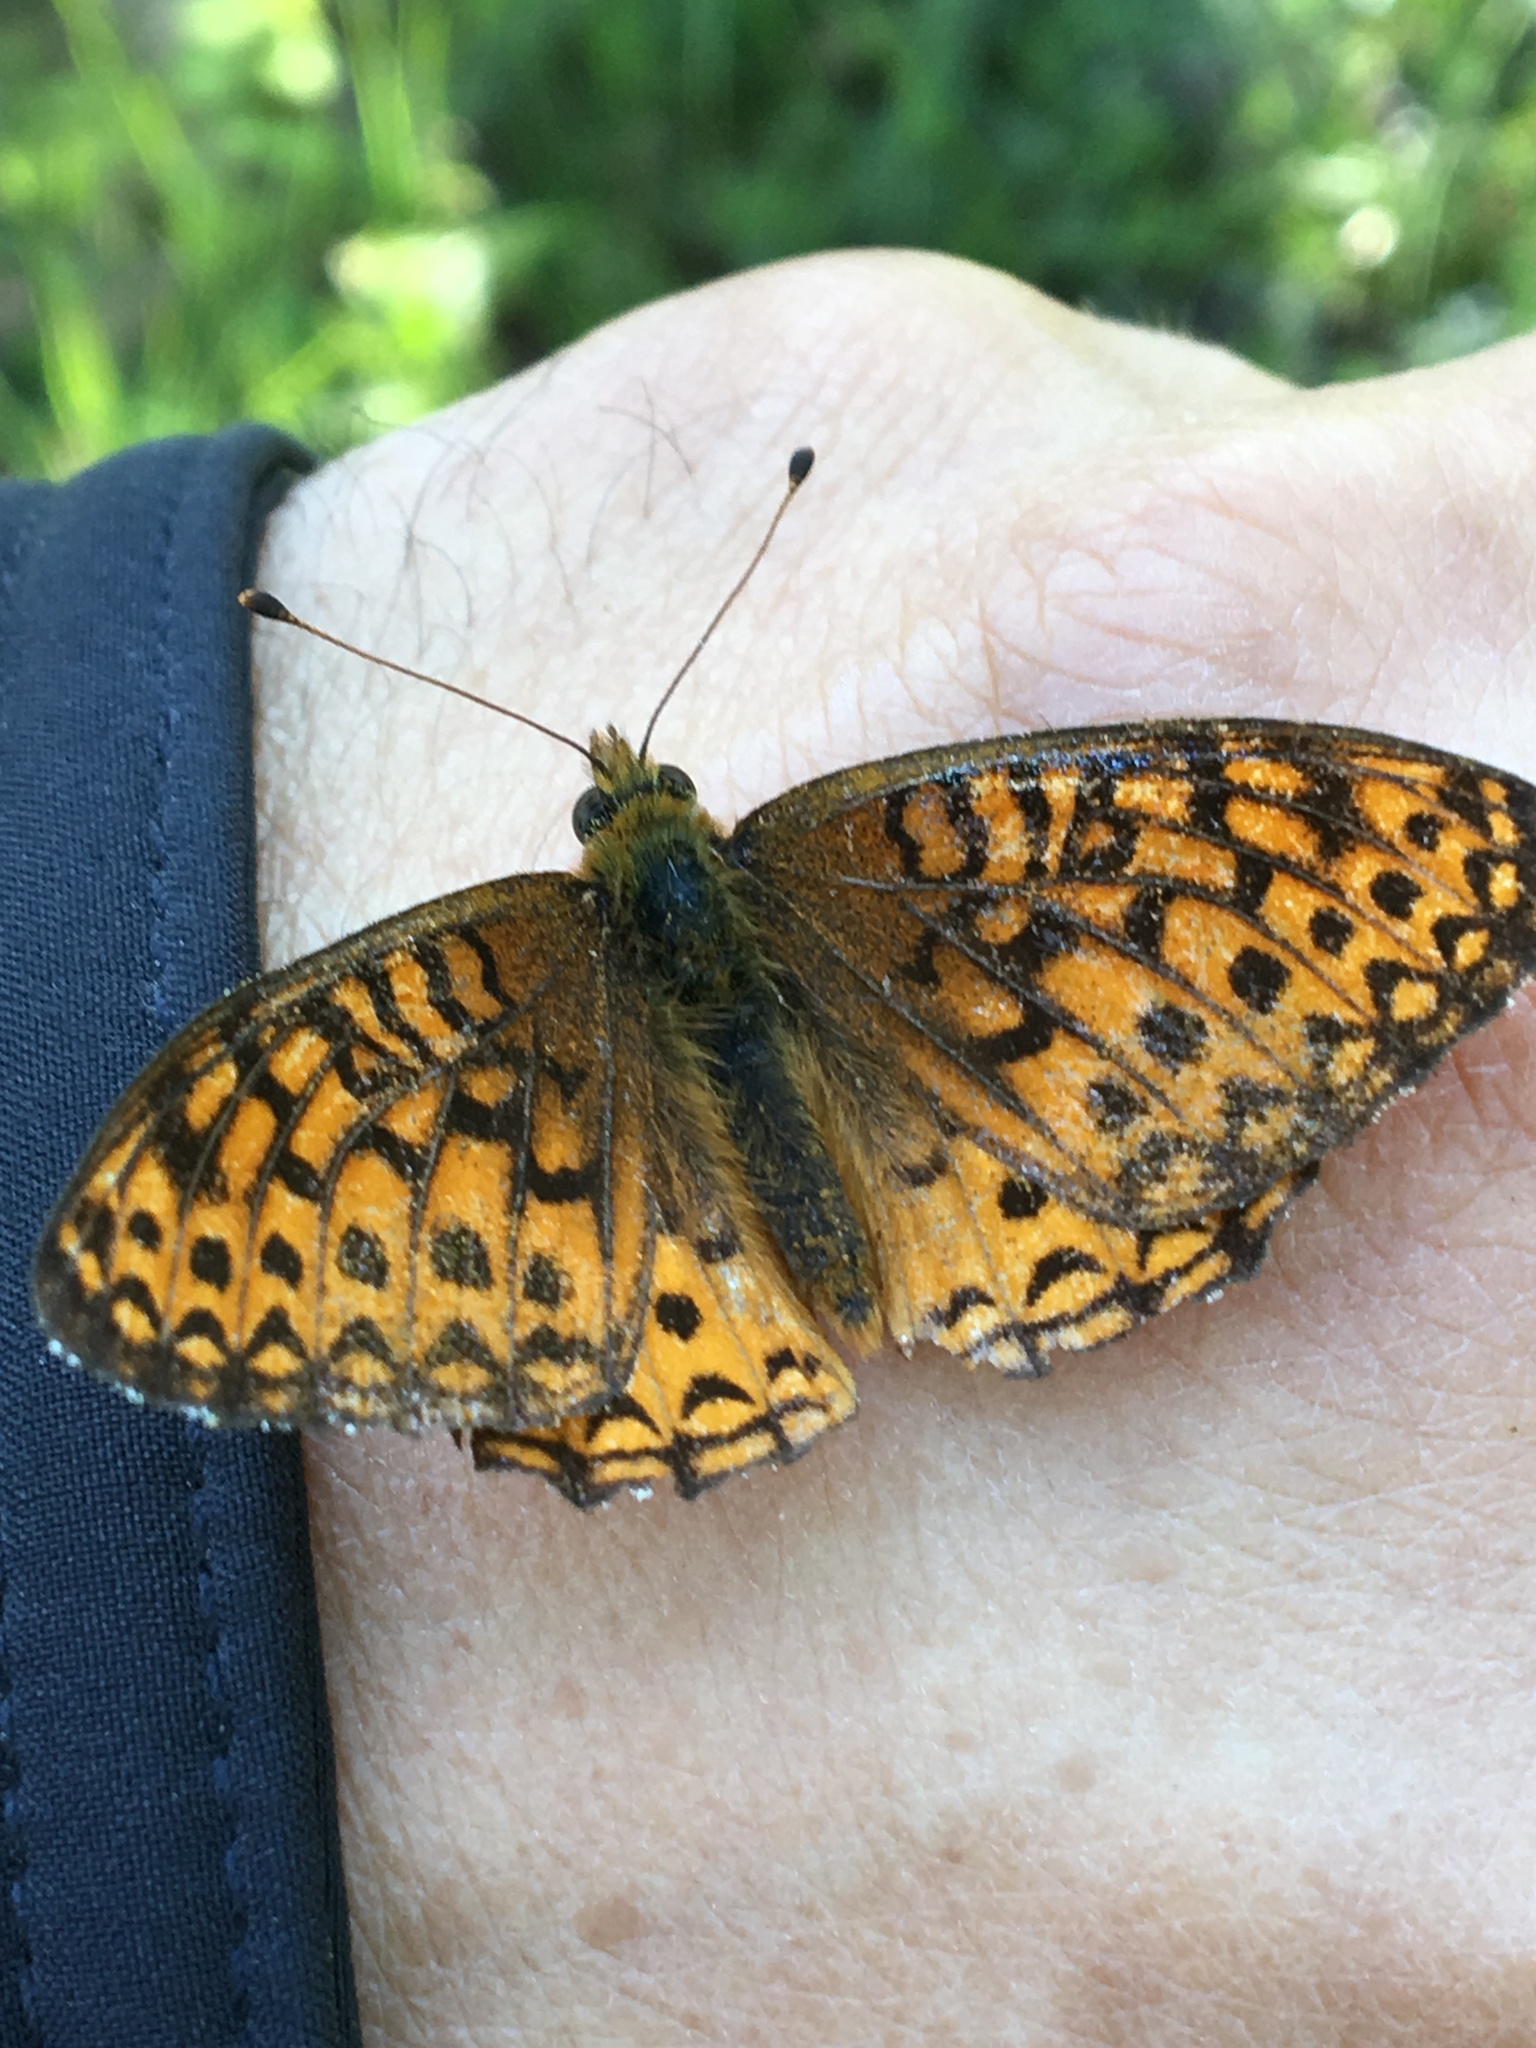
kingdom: Animalia
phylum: Arthropoda
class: Insecta
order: Lepidoptera
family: Nymphalidae
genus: Speyeria
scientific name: Speyeria atlantis
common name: Atlantis fritillary
